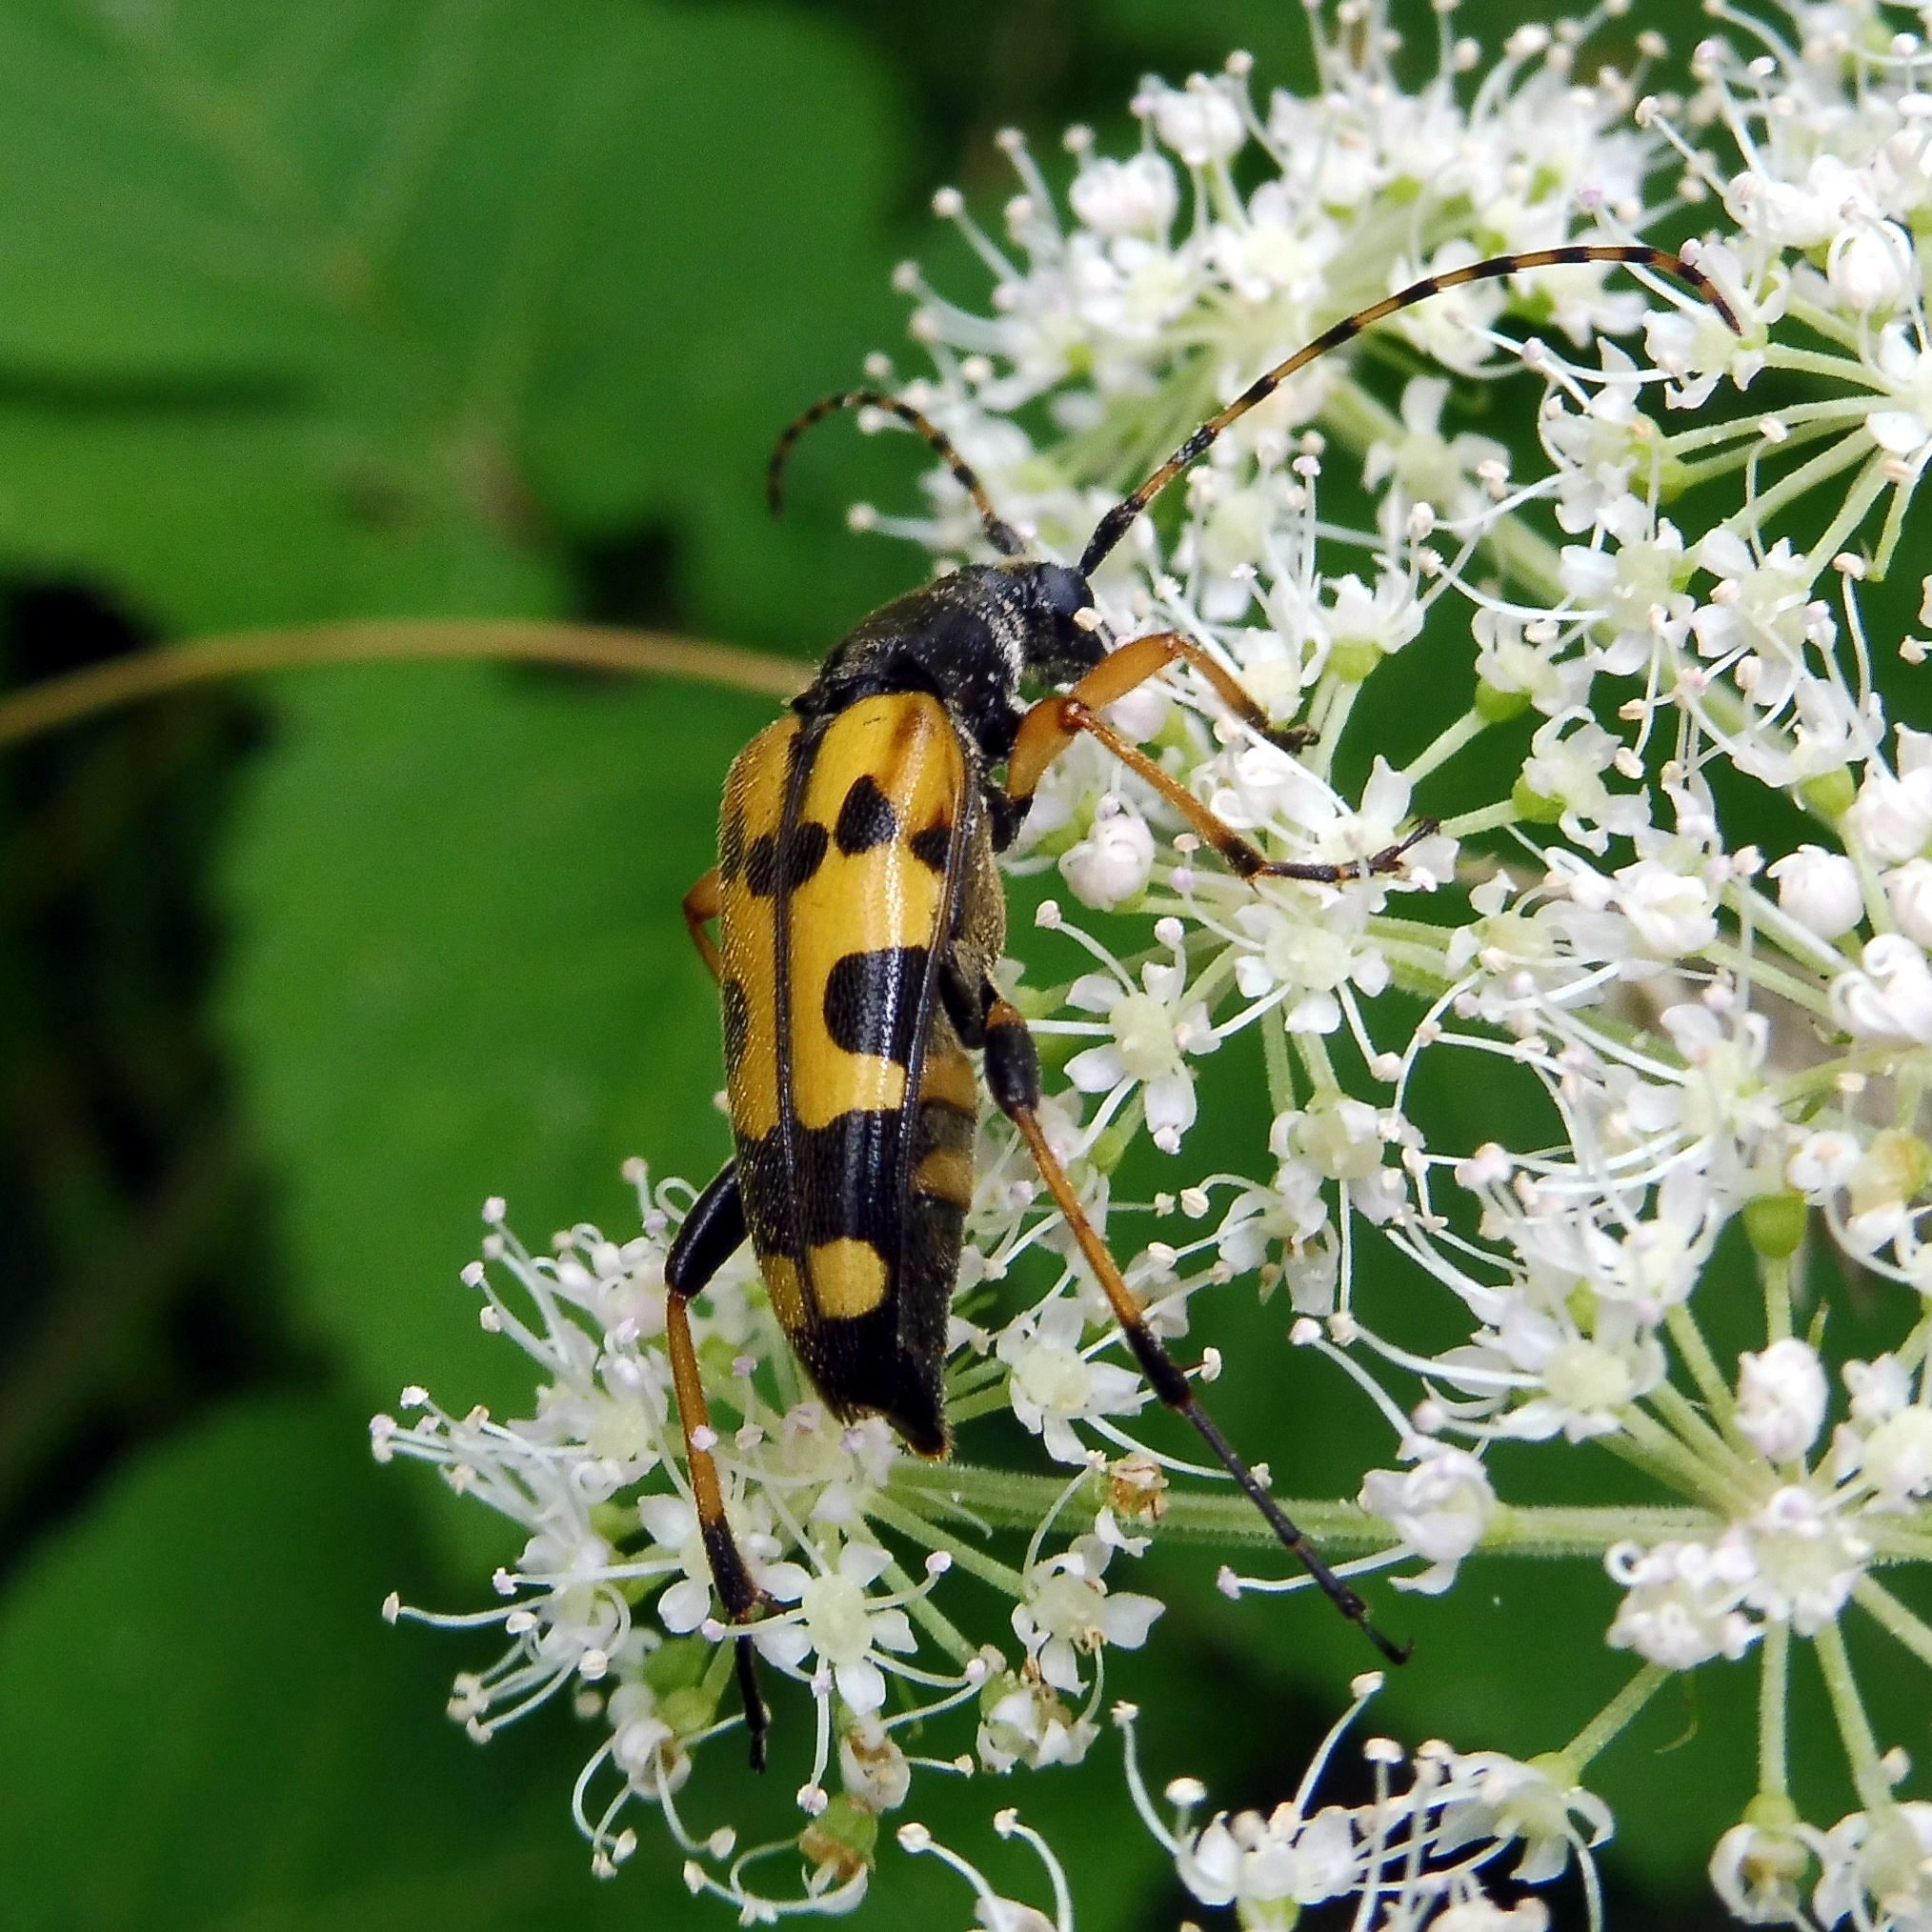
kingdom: Animalia
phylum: Arthropoda
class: Insecta
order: Coleoptera
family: Cerambycidae
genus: Rutpela
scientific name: Rutpela maculata
